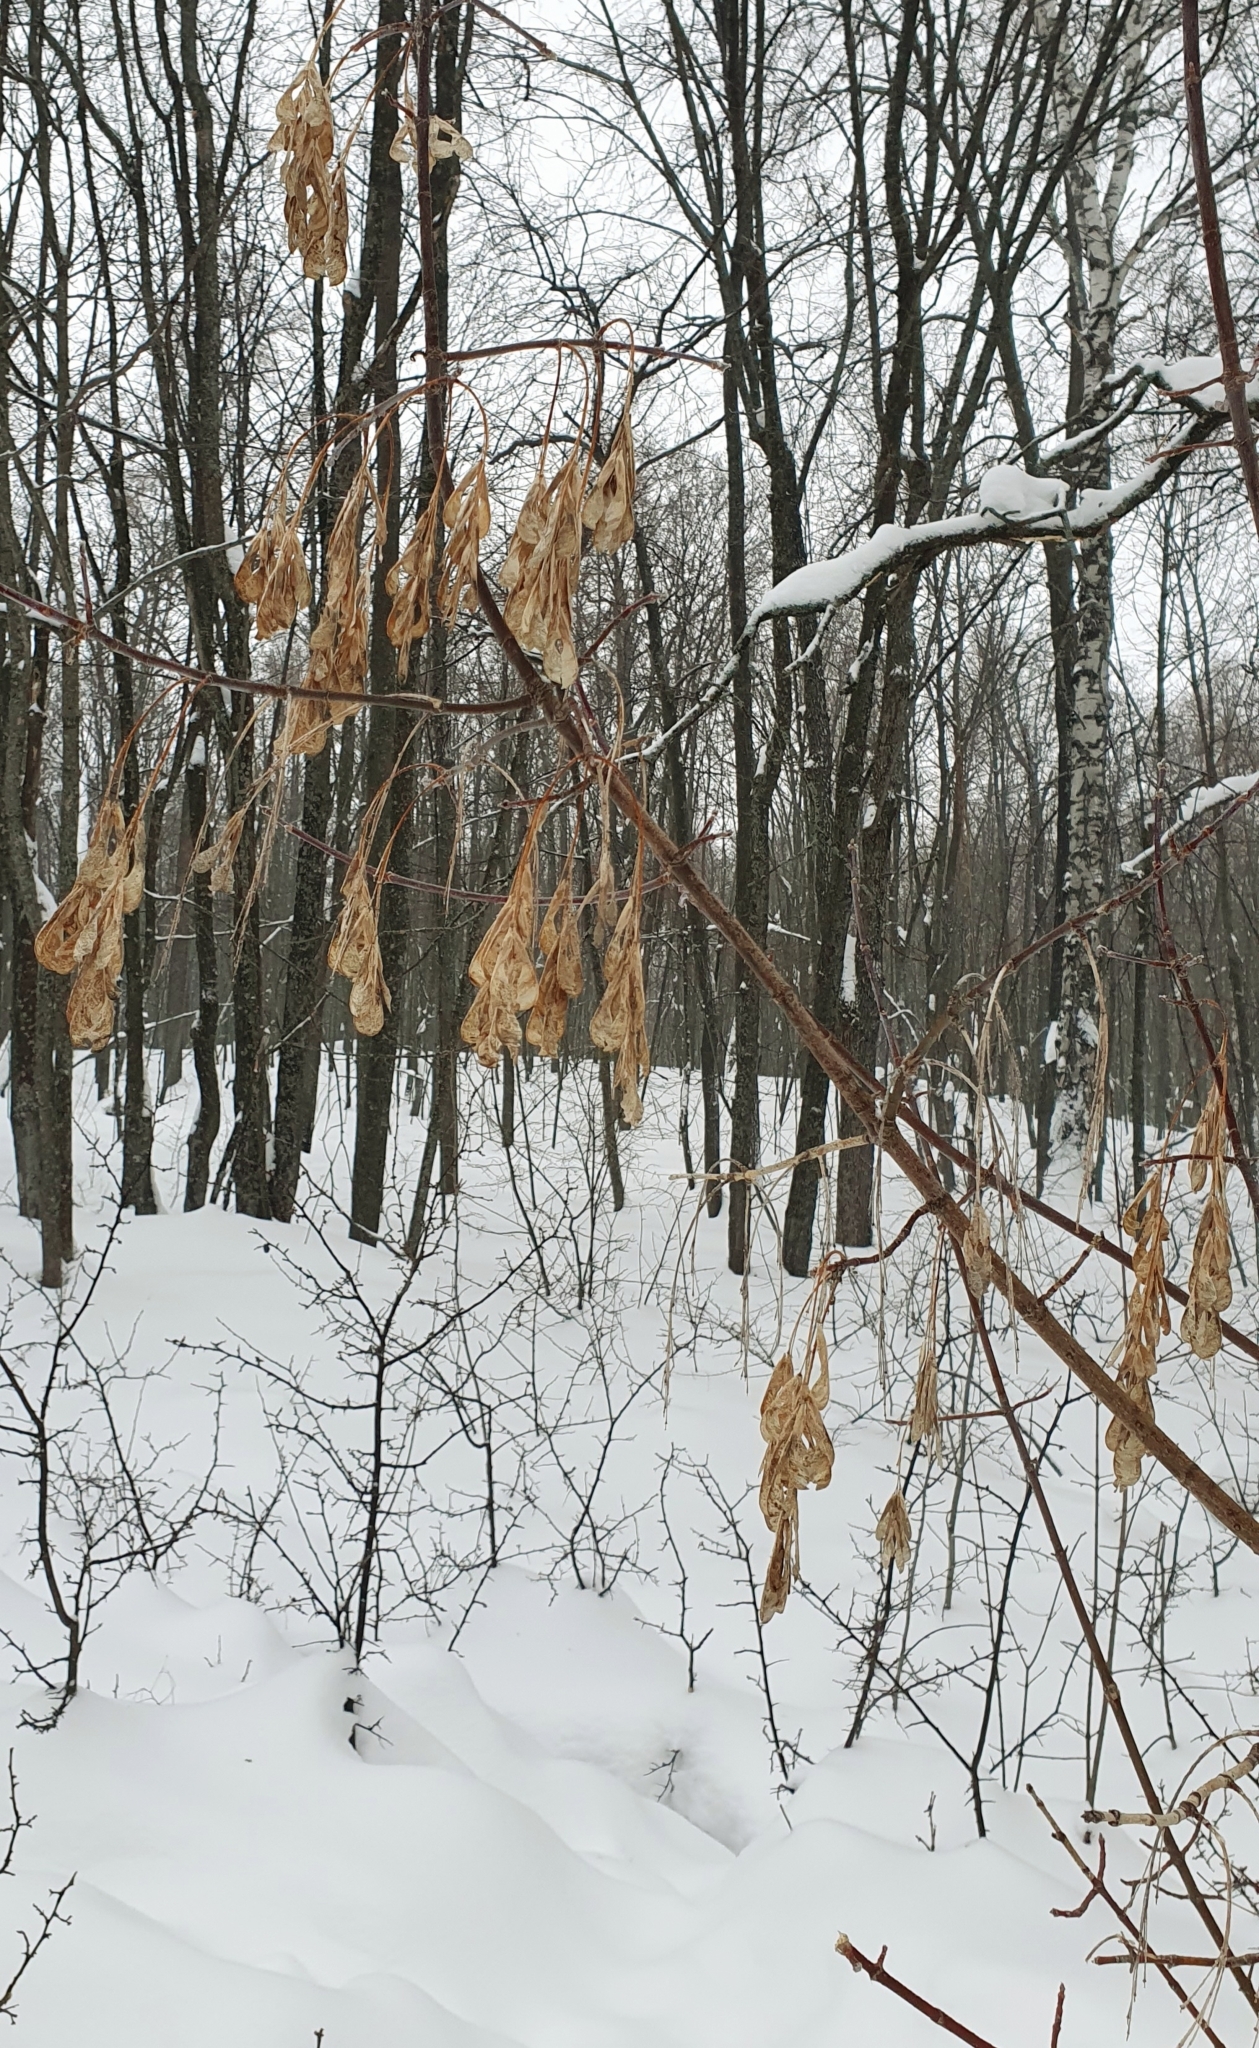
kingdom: Plantae
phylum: Tracheophyta
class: Magnoliopsida
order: Sapindales
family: Sapindaceae
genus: Acer
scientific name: Acer negundo
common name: Ashleaf maple
